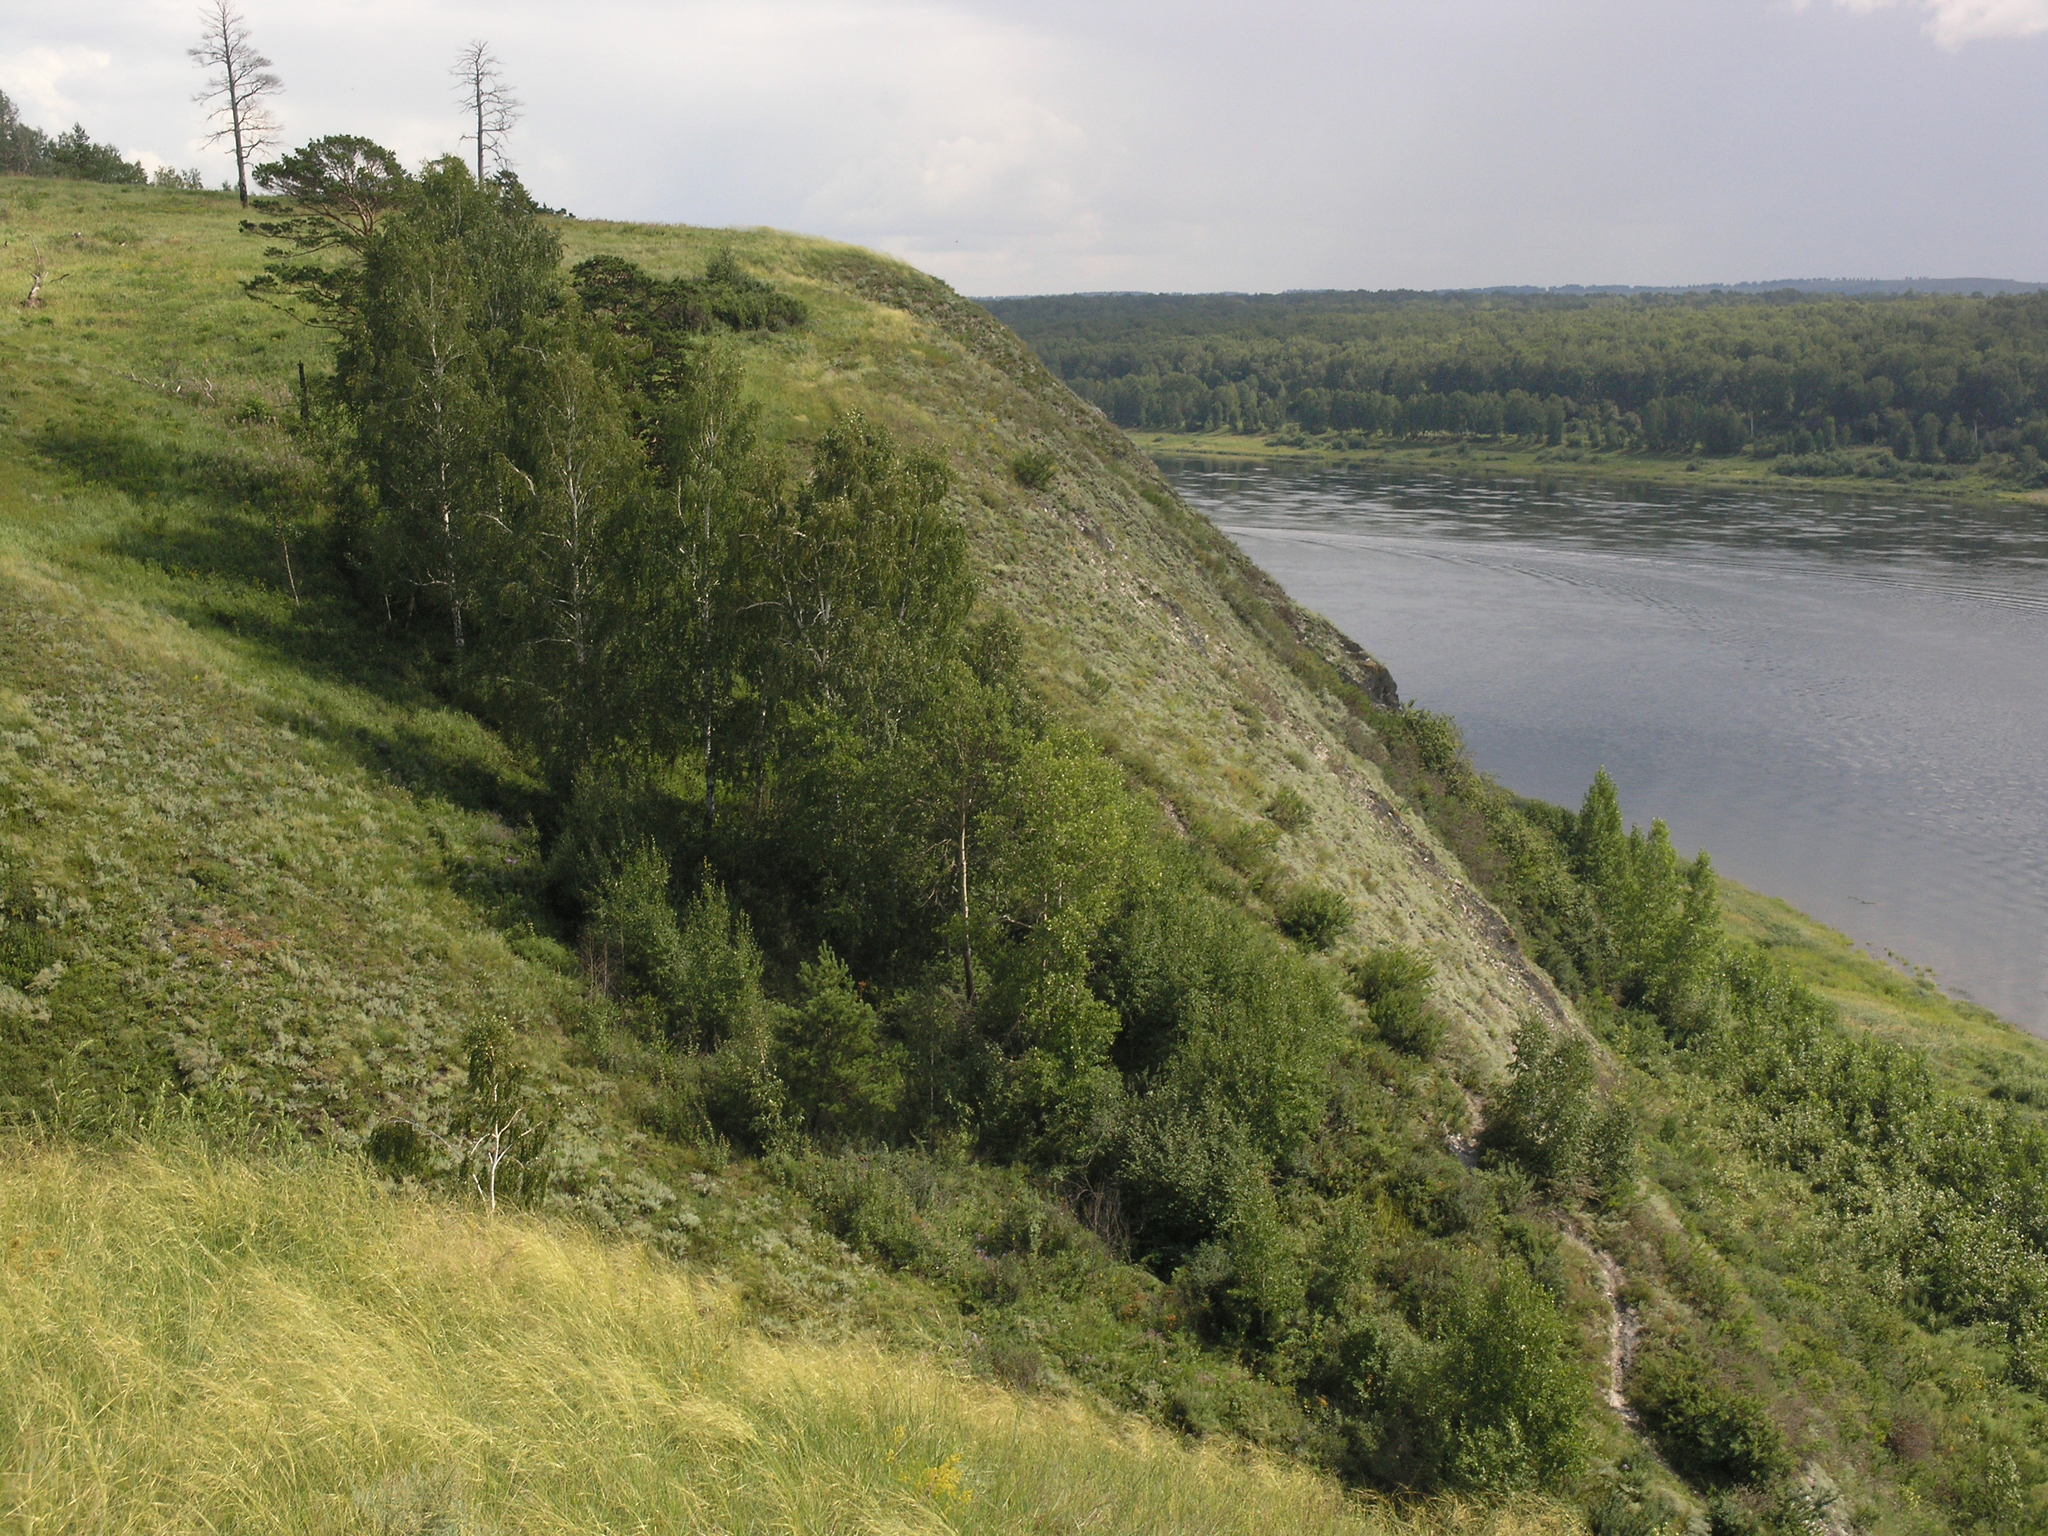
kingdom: Plantae
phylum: Tracheophyta
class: Magnoliopsida
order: Fagales
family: Betulaceae
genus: Betula
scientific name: Betula pendula
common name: Silver birch
